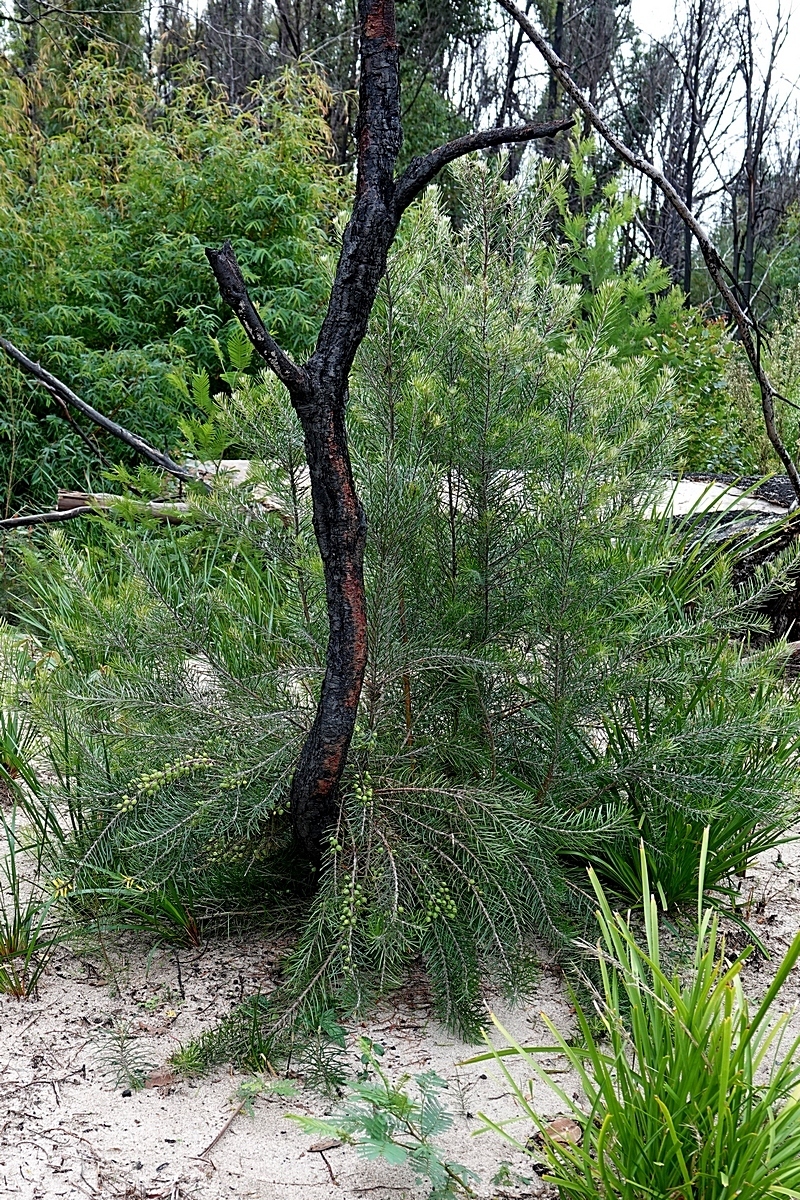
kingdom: Plantae
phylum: Tracheophyta
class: Magnoliopsida
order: Proteales
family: Proteaceae
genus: Persoonia
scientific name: Persoonia linearis
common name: Narrow-leaf geebung
